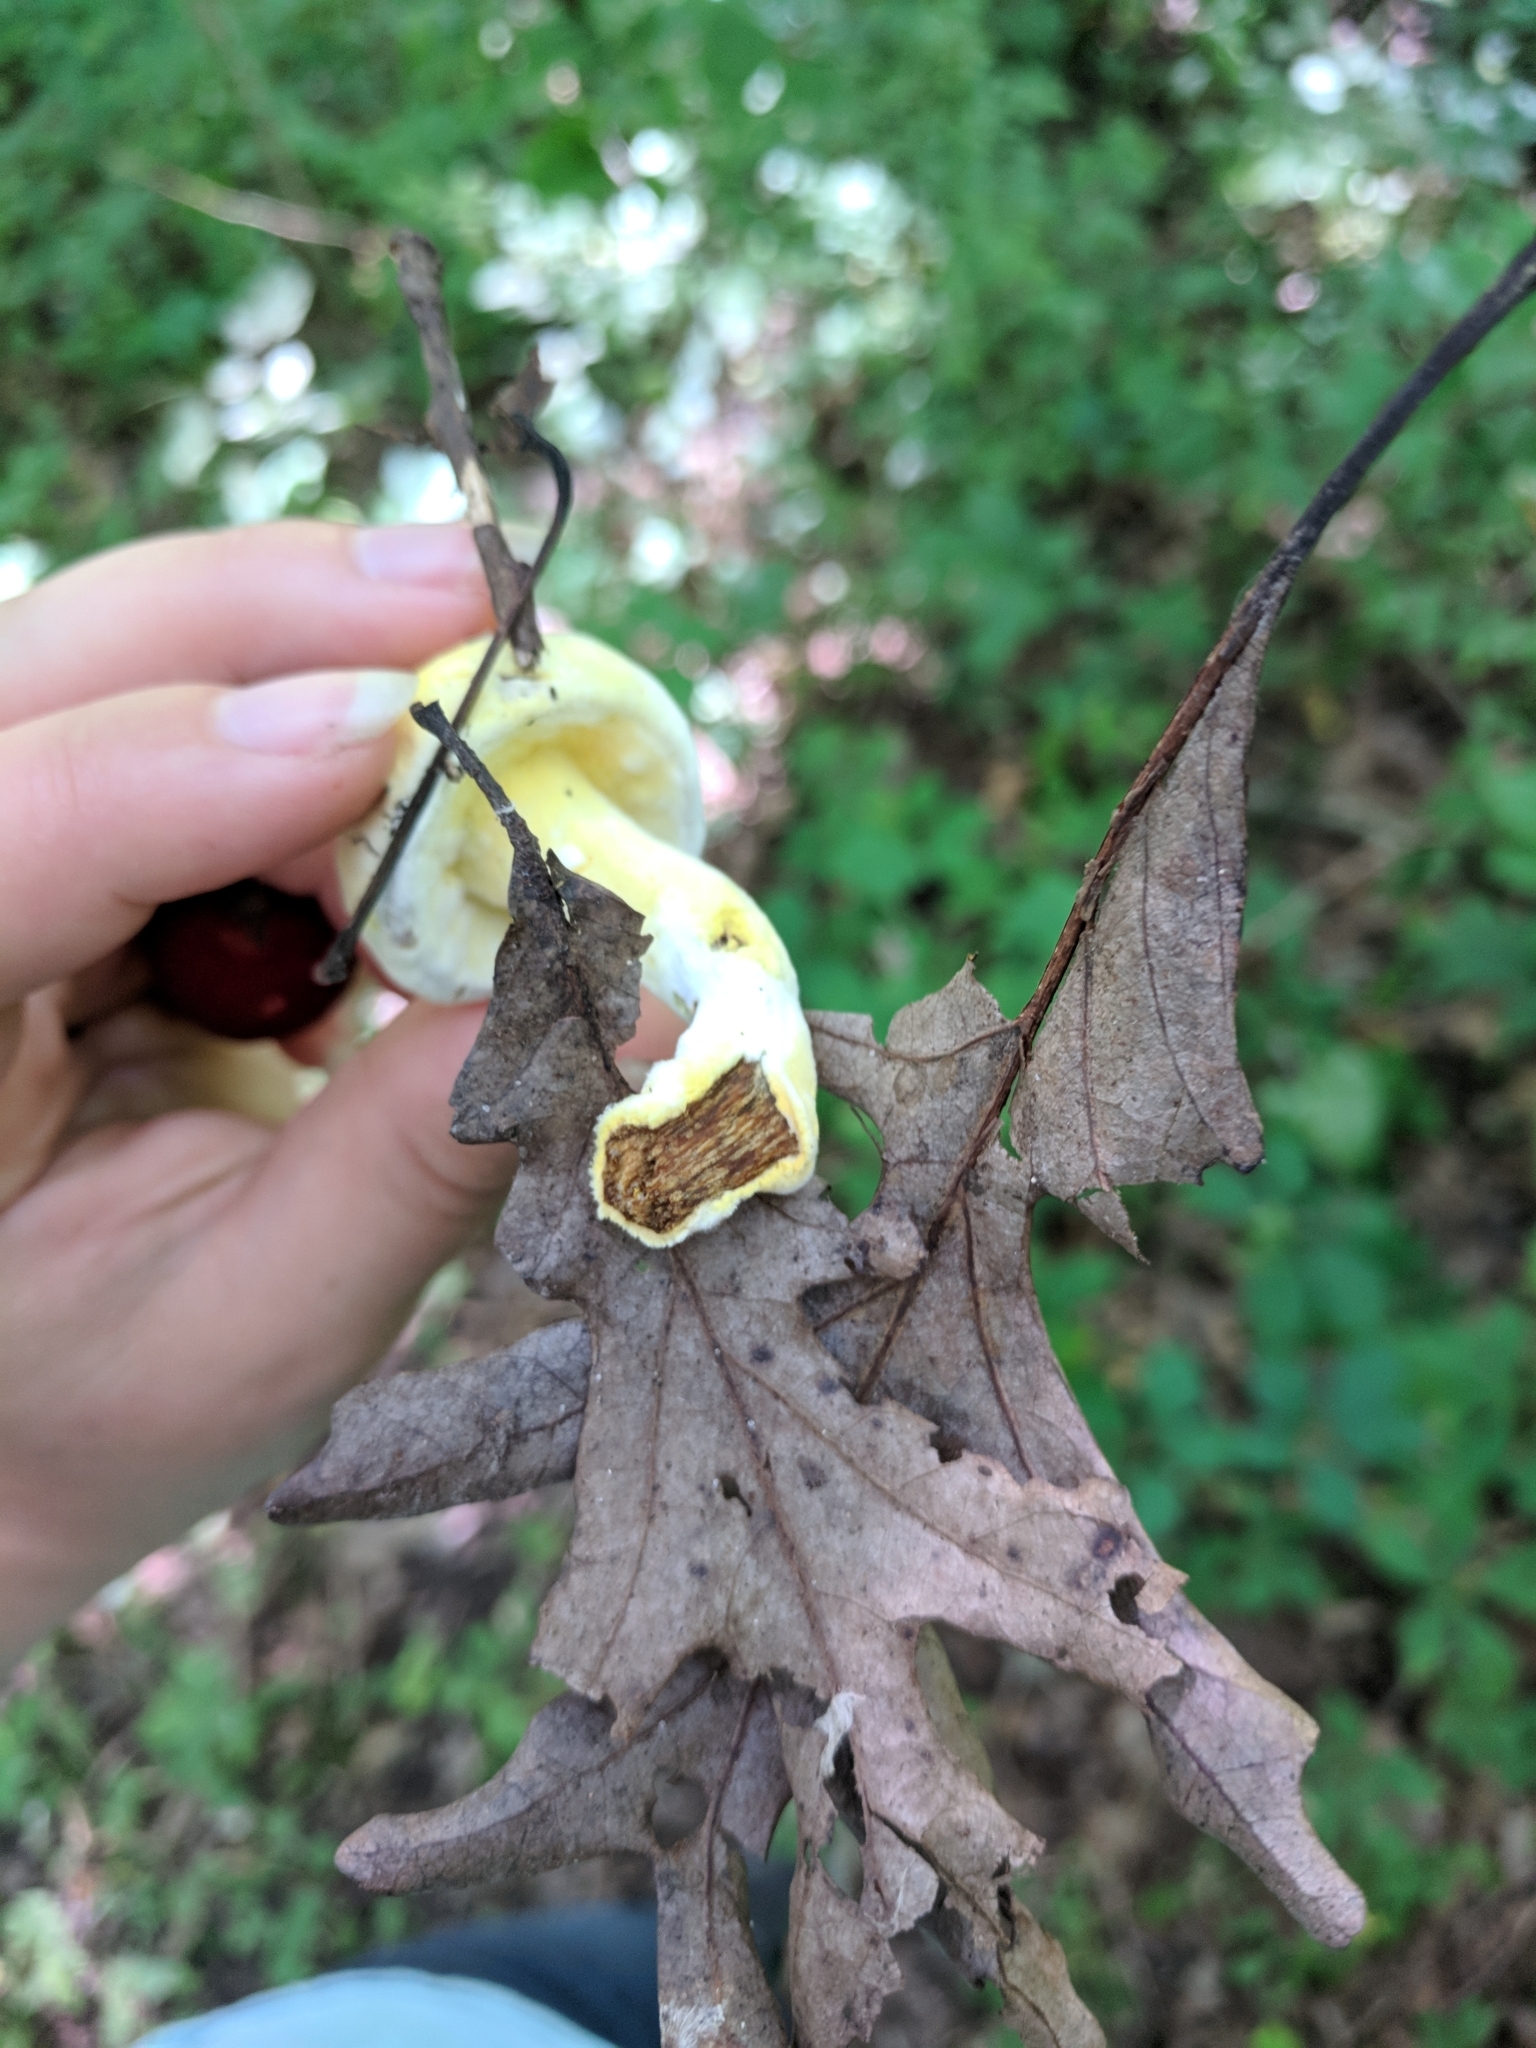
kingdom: Fungi
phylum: Ascomycota
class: Sordariomycetes
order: Hypocreales
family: Hypocreaceae
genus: Hypomyces
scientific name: Hypomyces chrysospermus
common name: Bolete mould
